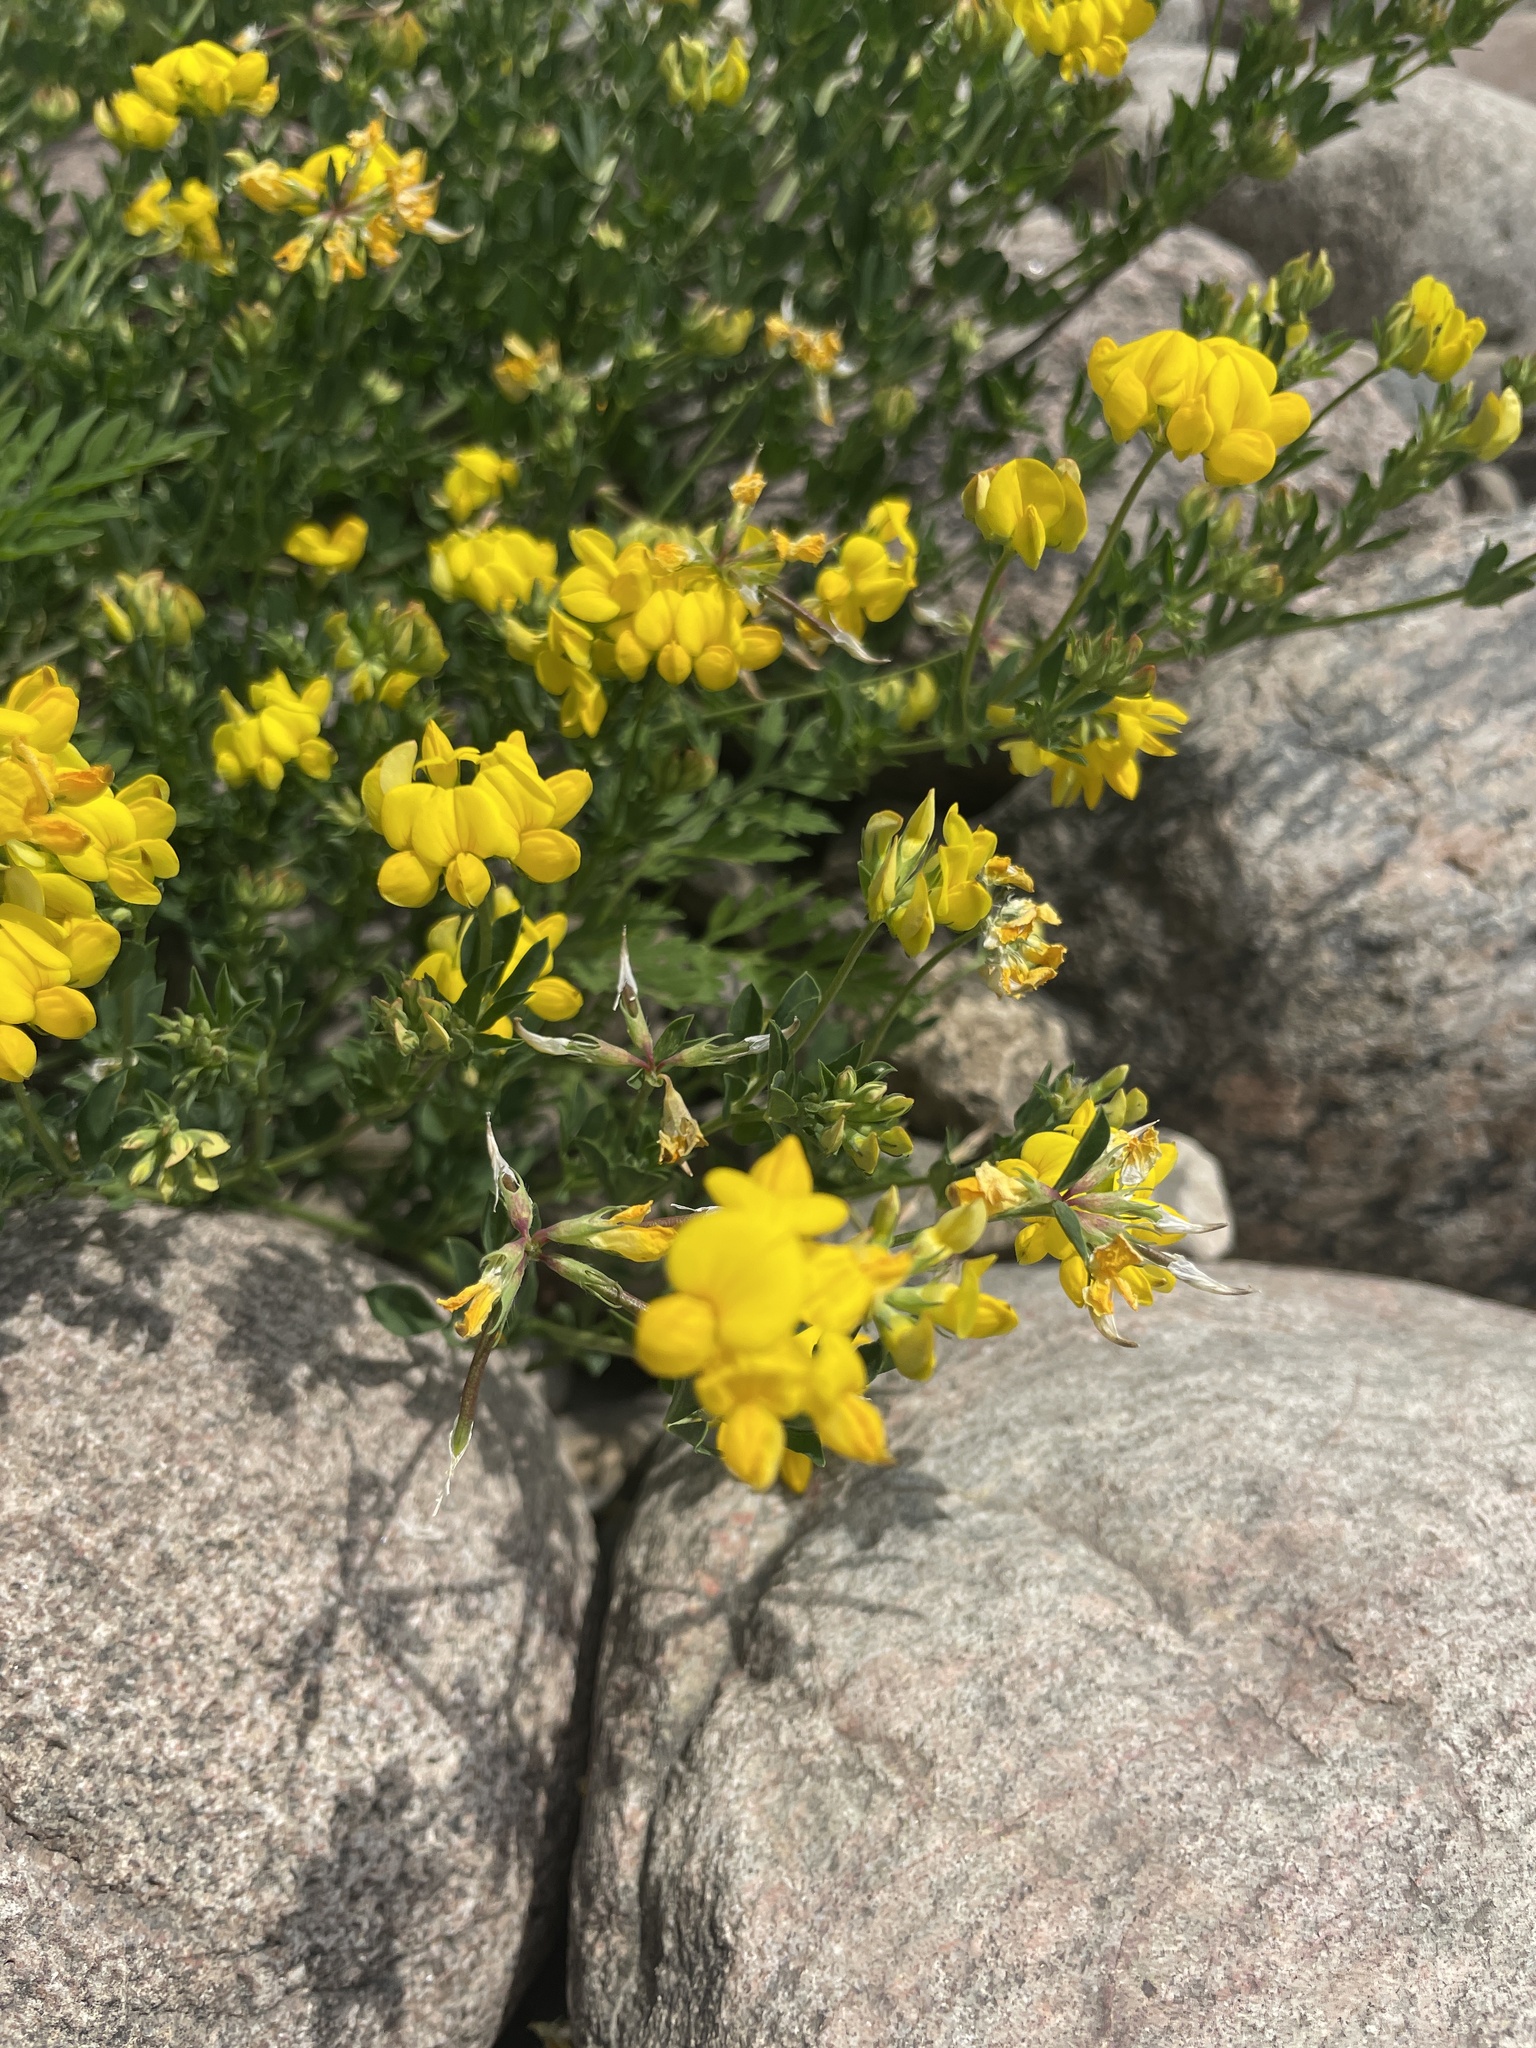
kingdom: Plantae
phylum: Tracheophyta
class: Magnoliopsida
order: Fabales
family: Fabaceae
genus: Lotus
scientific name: Lotus corniculatus
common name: Common bird's-foot-trefoil
